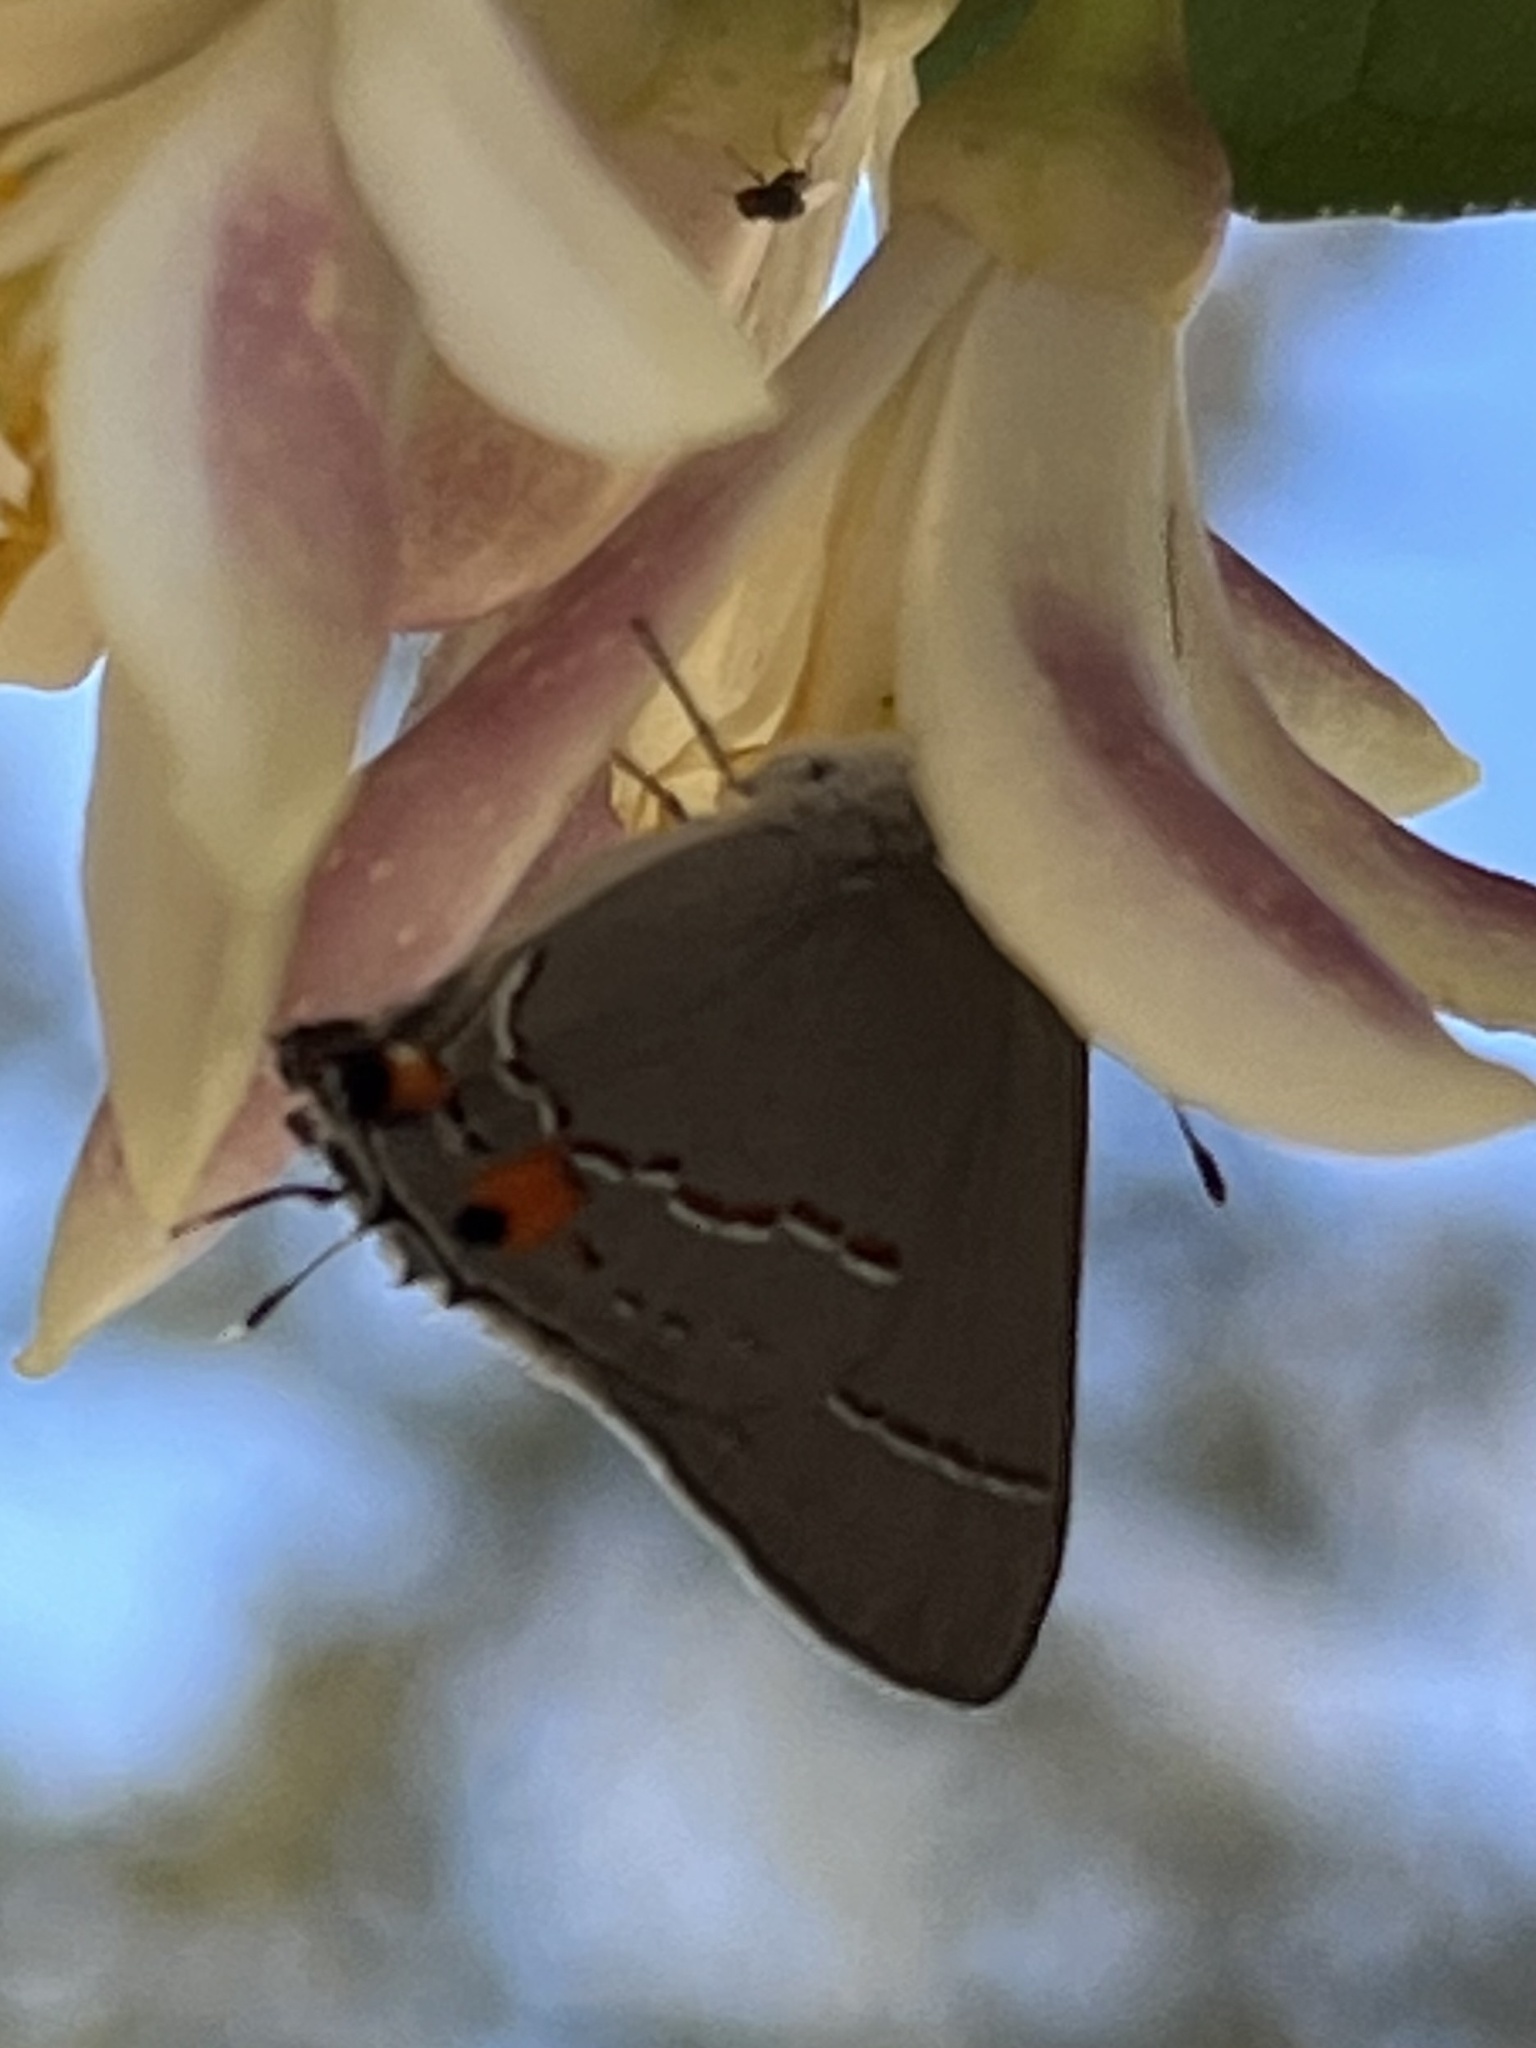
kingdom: Animalia
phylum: Arthropoda
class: Insecta
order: Lepidoptera
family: Lycaenidae
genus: Strymon
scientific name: Strymon melinus
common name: Gray hairstreak
